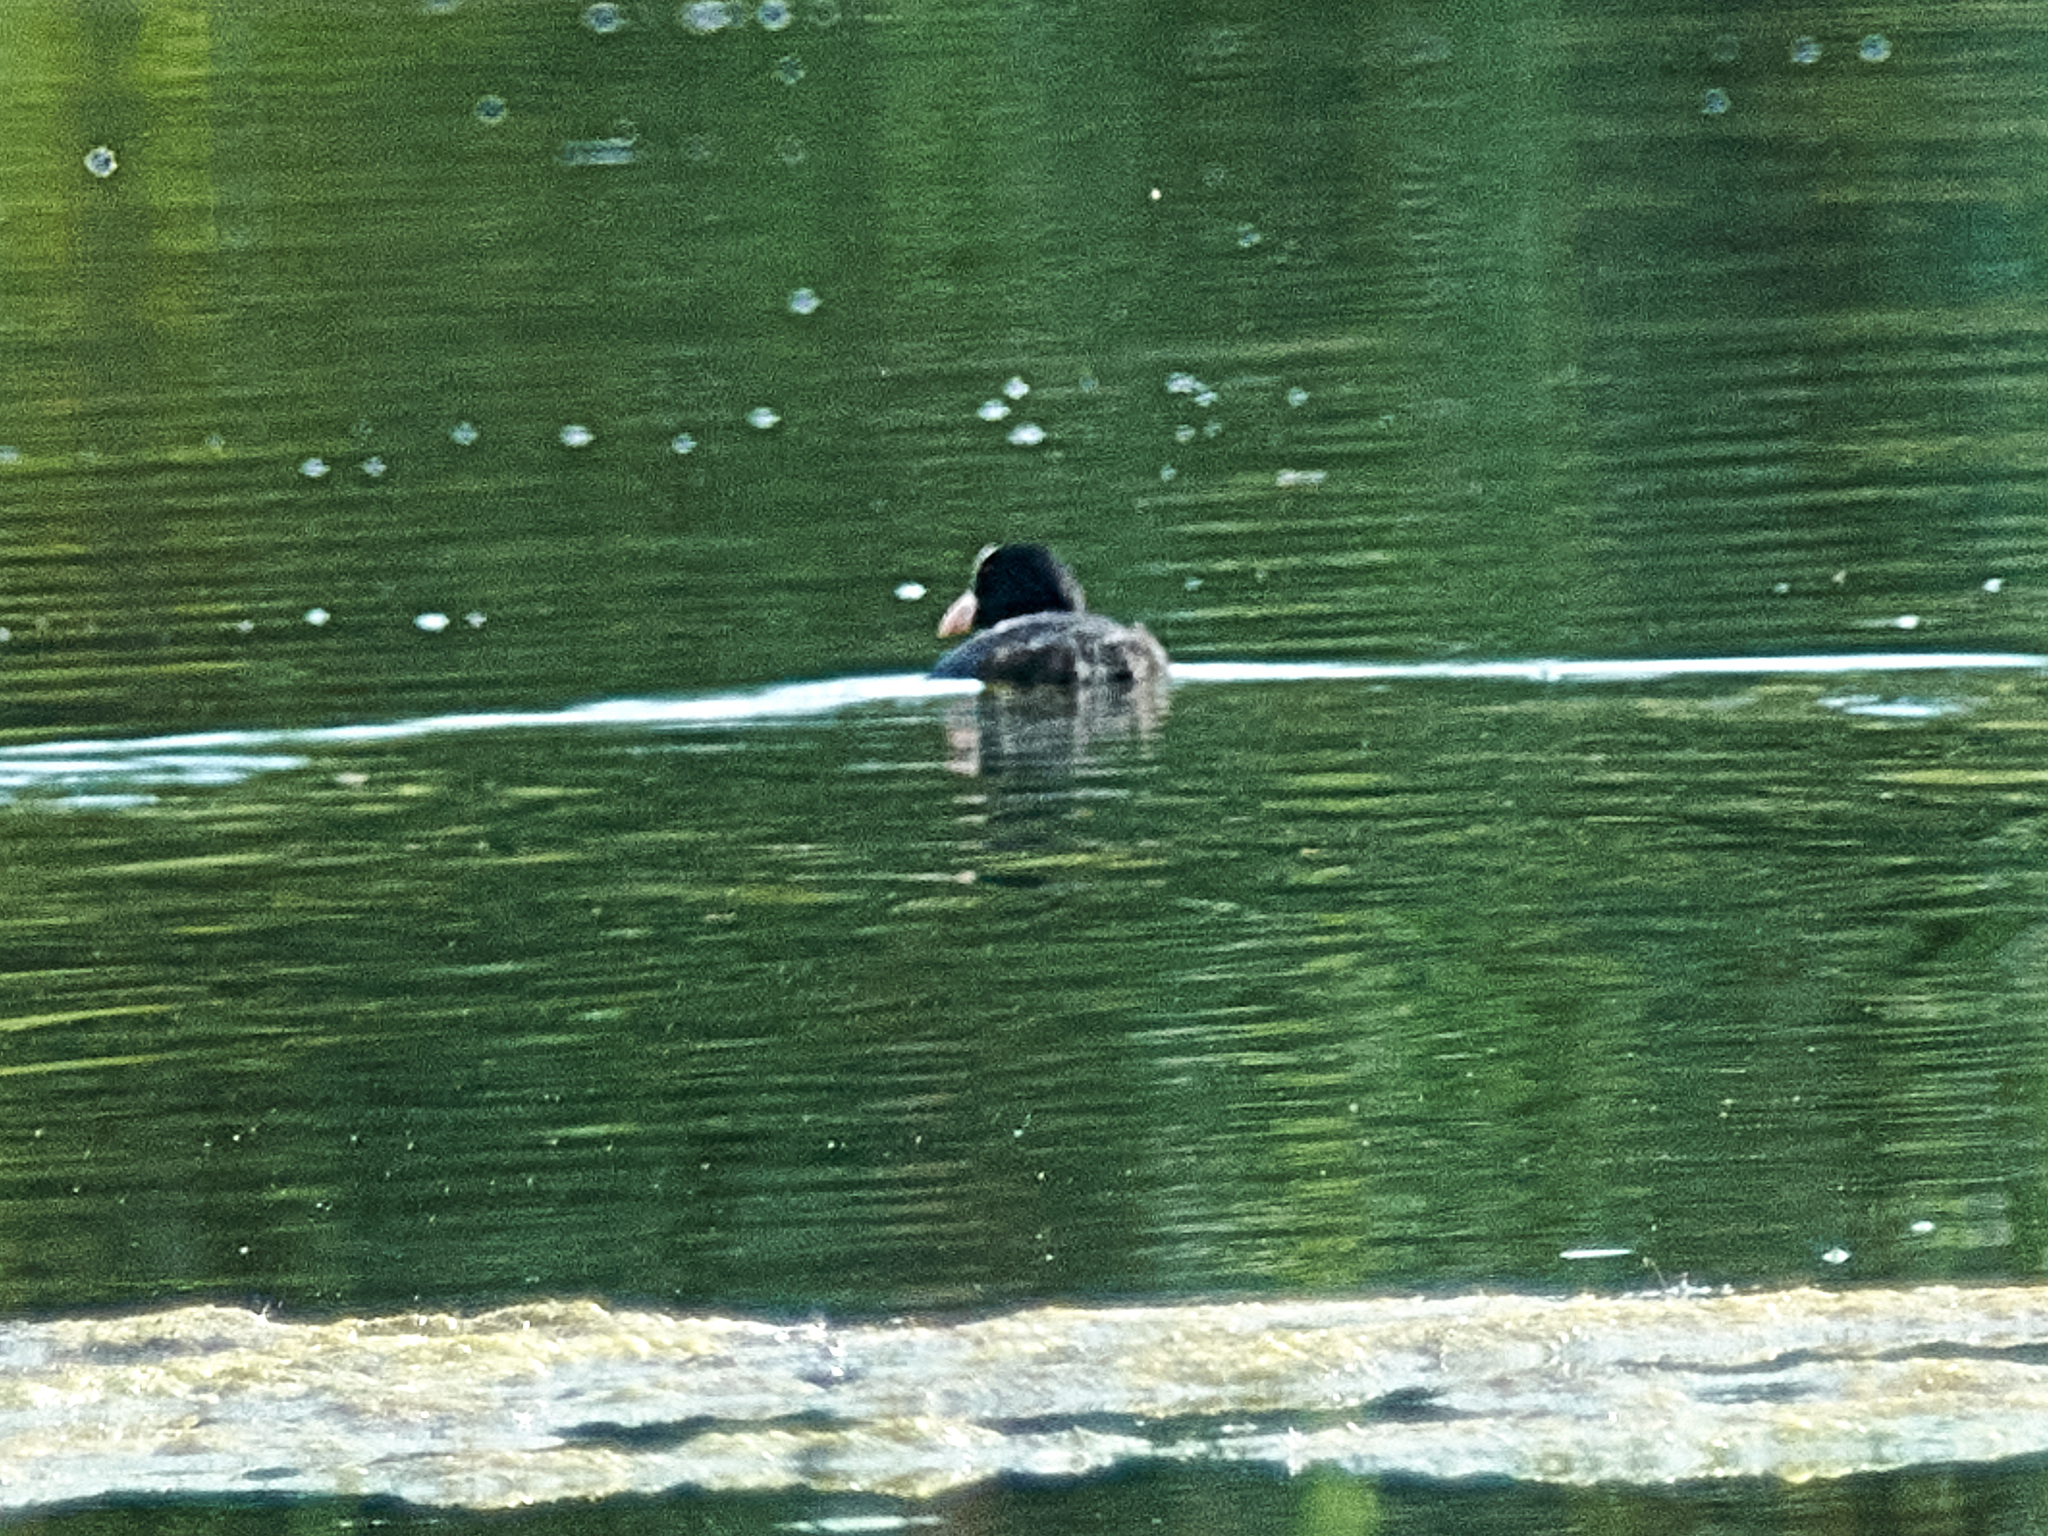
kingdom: Animalia
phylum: Chordata
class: Aves
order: Gruiformes
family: Rallidae
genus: Fulica
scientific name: Fulica atra
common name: Eurasian coot
